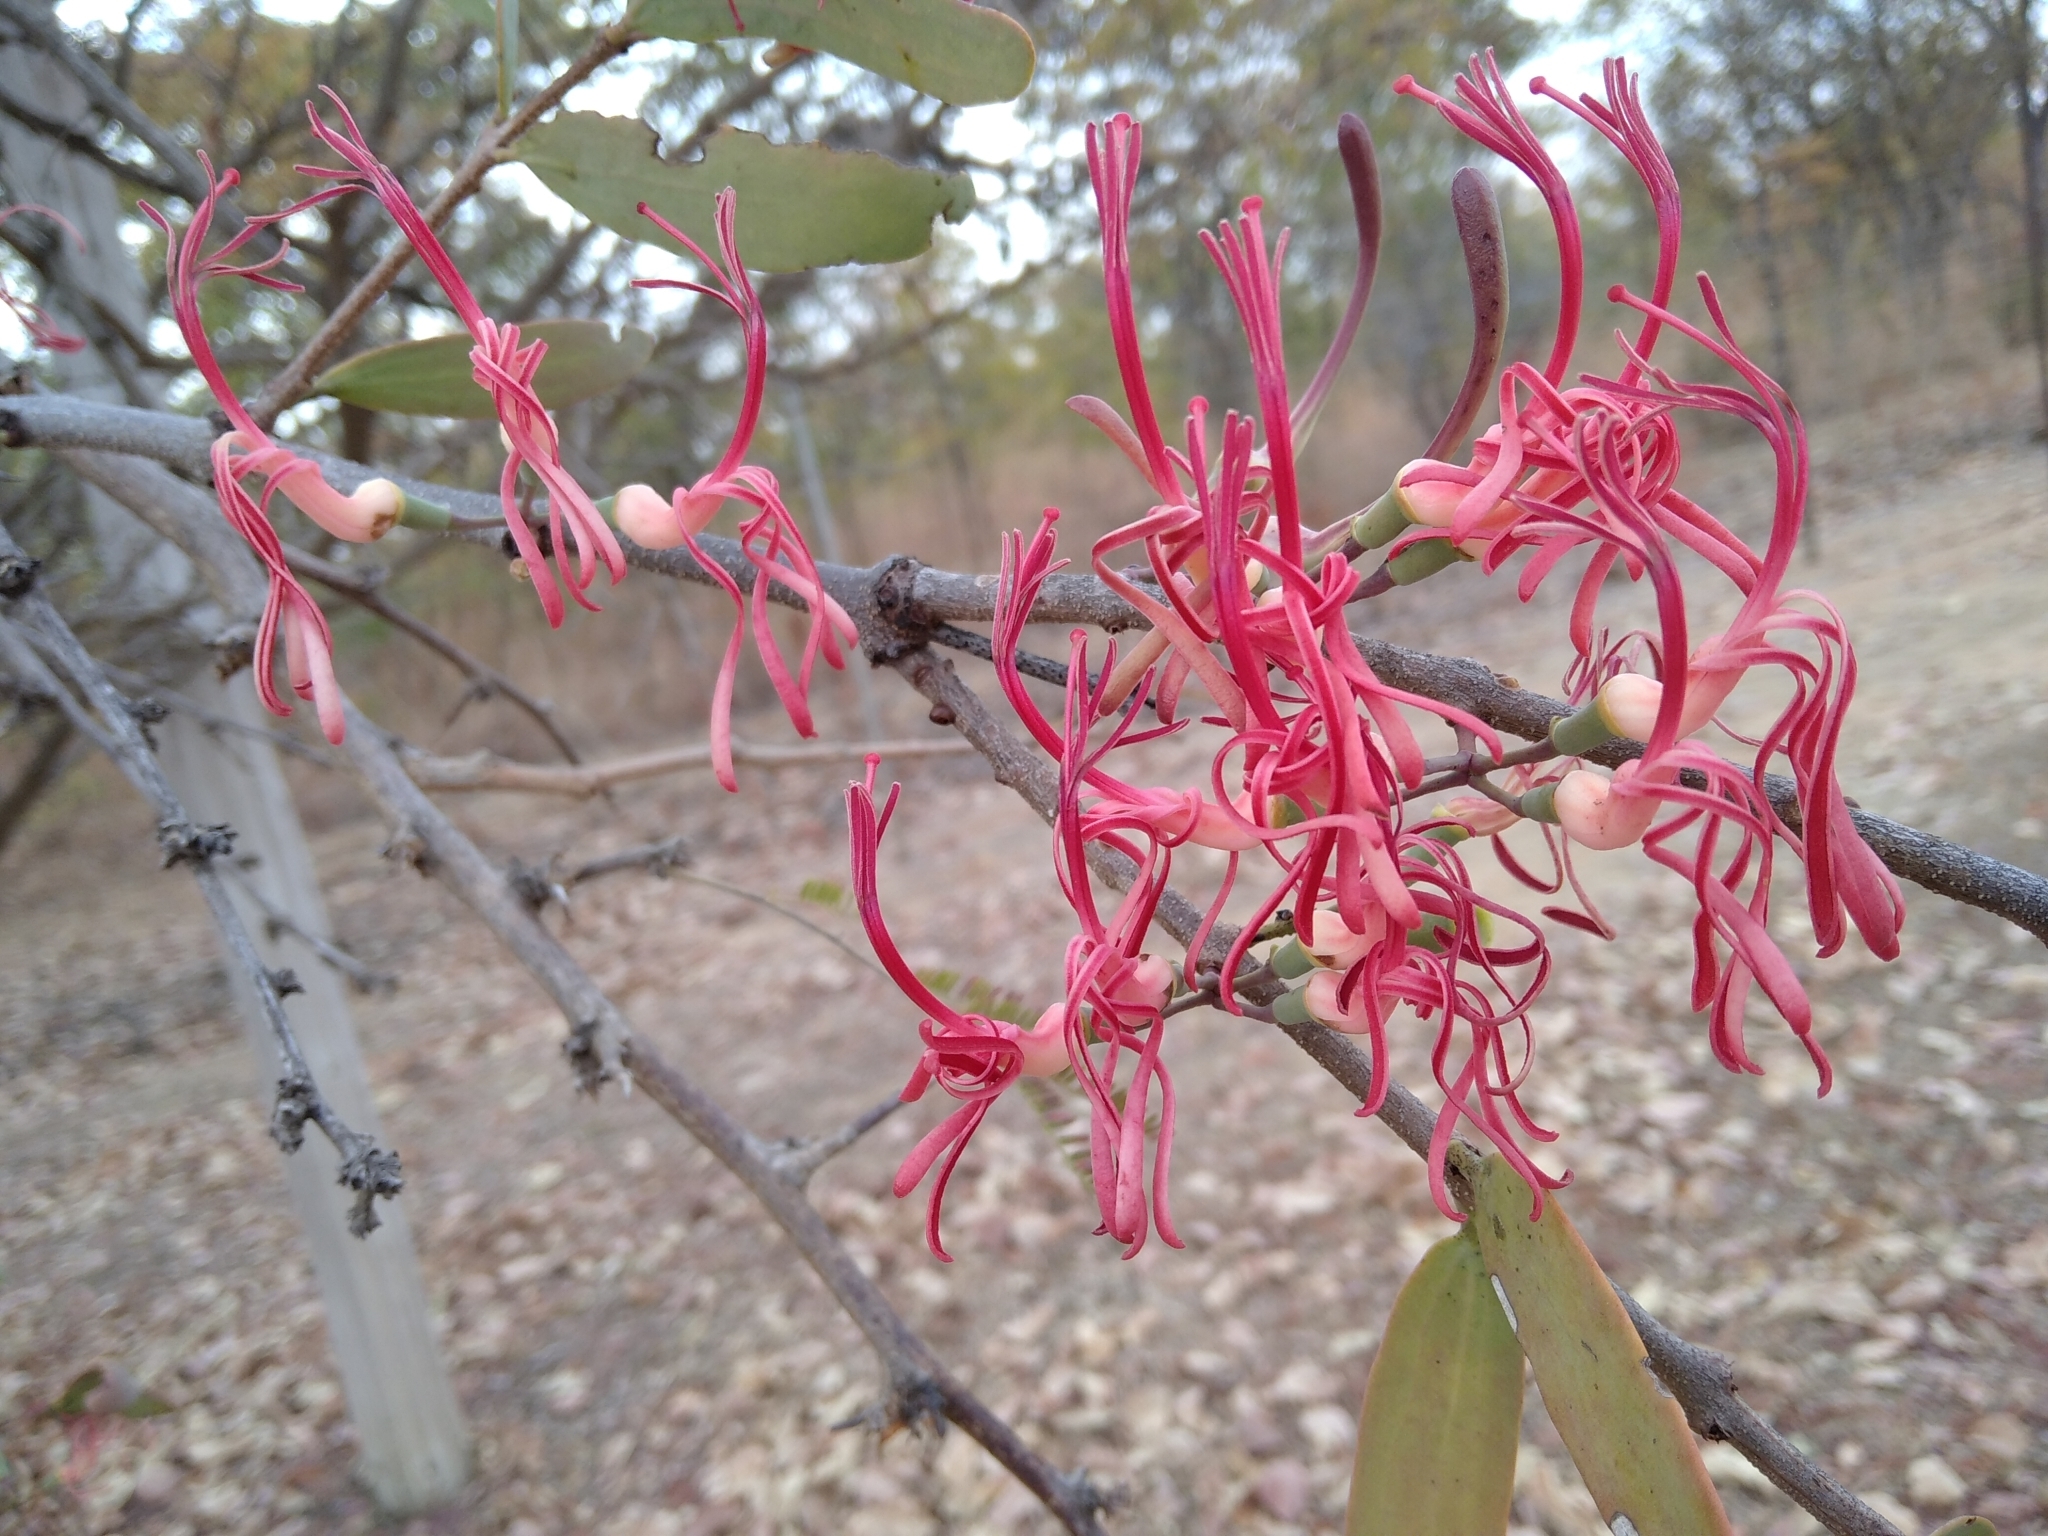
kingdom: Plantae
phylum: Tracheophyta
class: Magnoliopsida
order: Santalales
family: Loranthaceae
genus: Plicosepalus
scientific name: Plicosepalus kalachariensis
